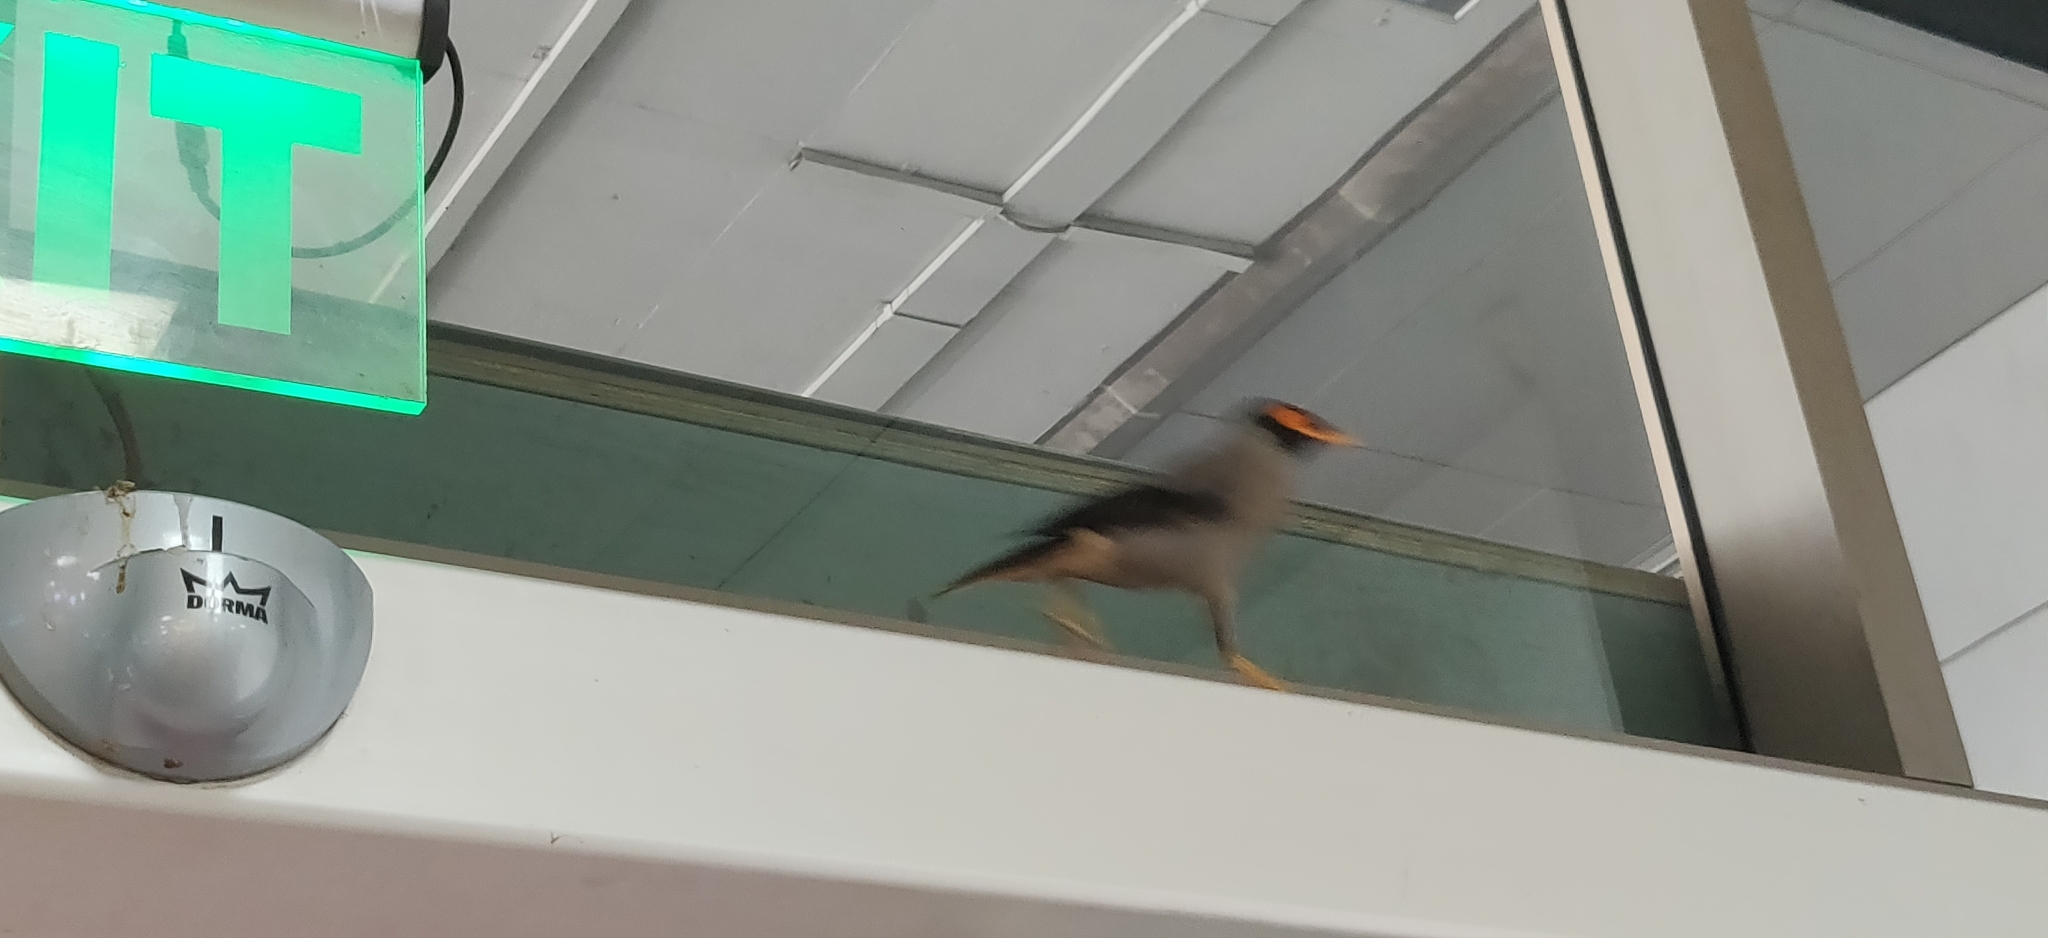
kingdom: Animalia
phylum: Chordata
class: Aves
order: Passeriformes
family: Sturnidae
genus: Acridotheres
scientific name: Acridotheres ginginianus
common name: Bank myna
